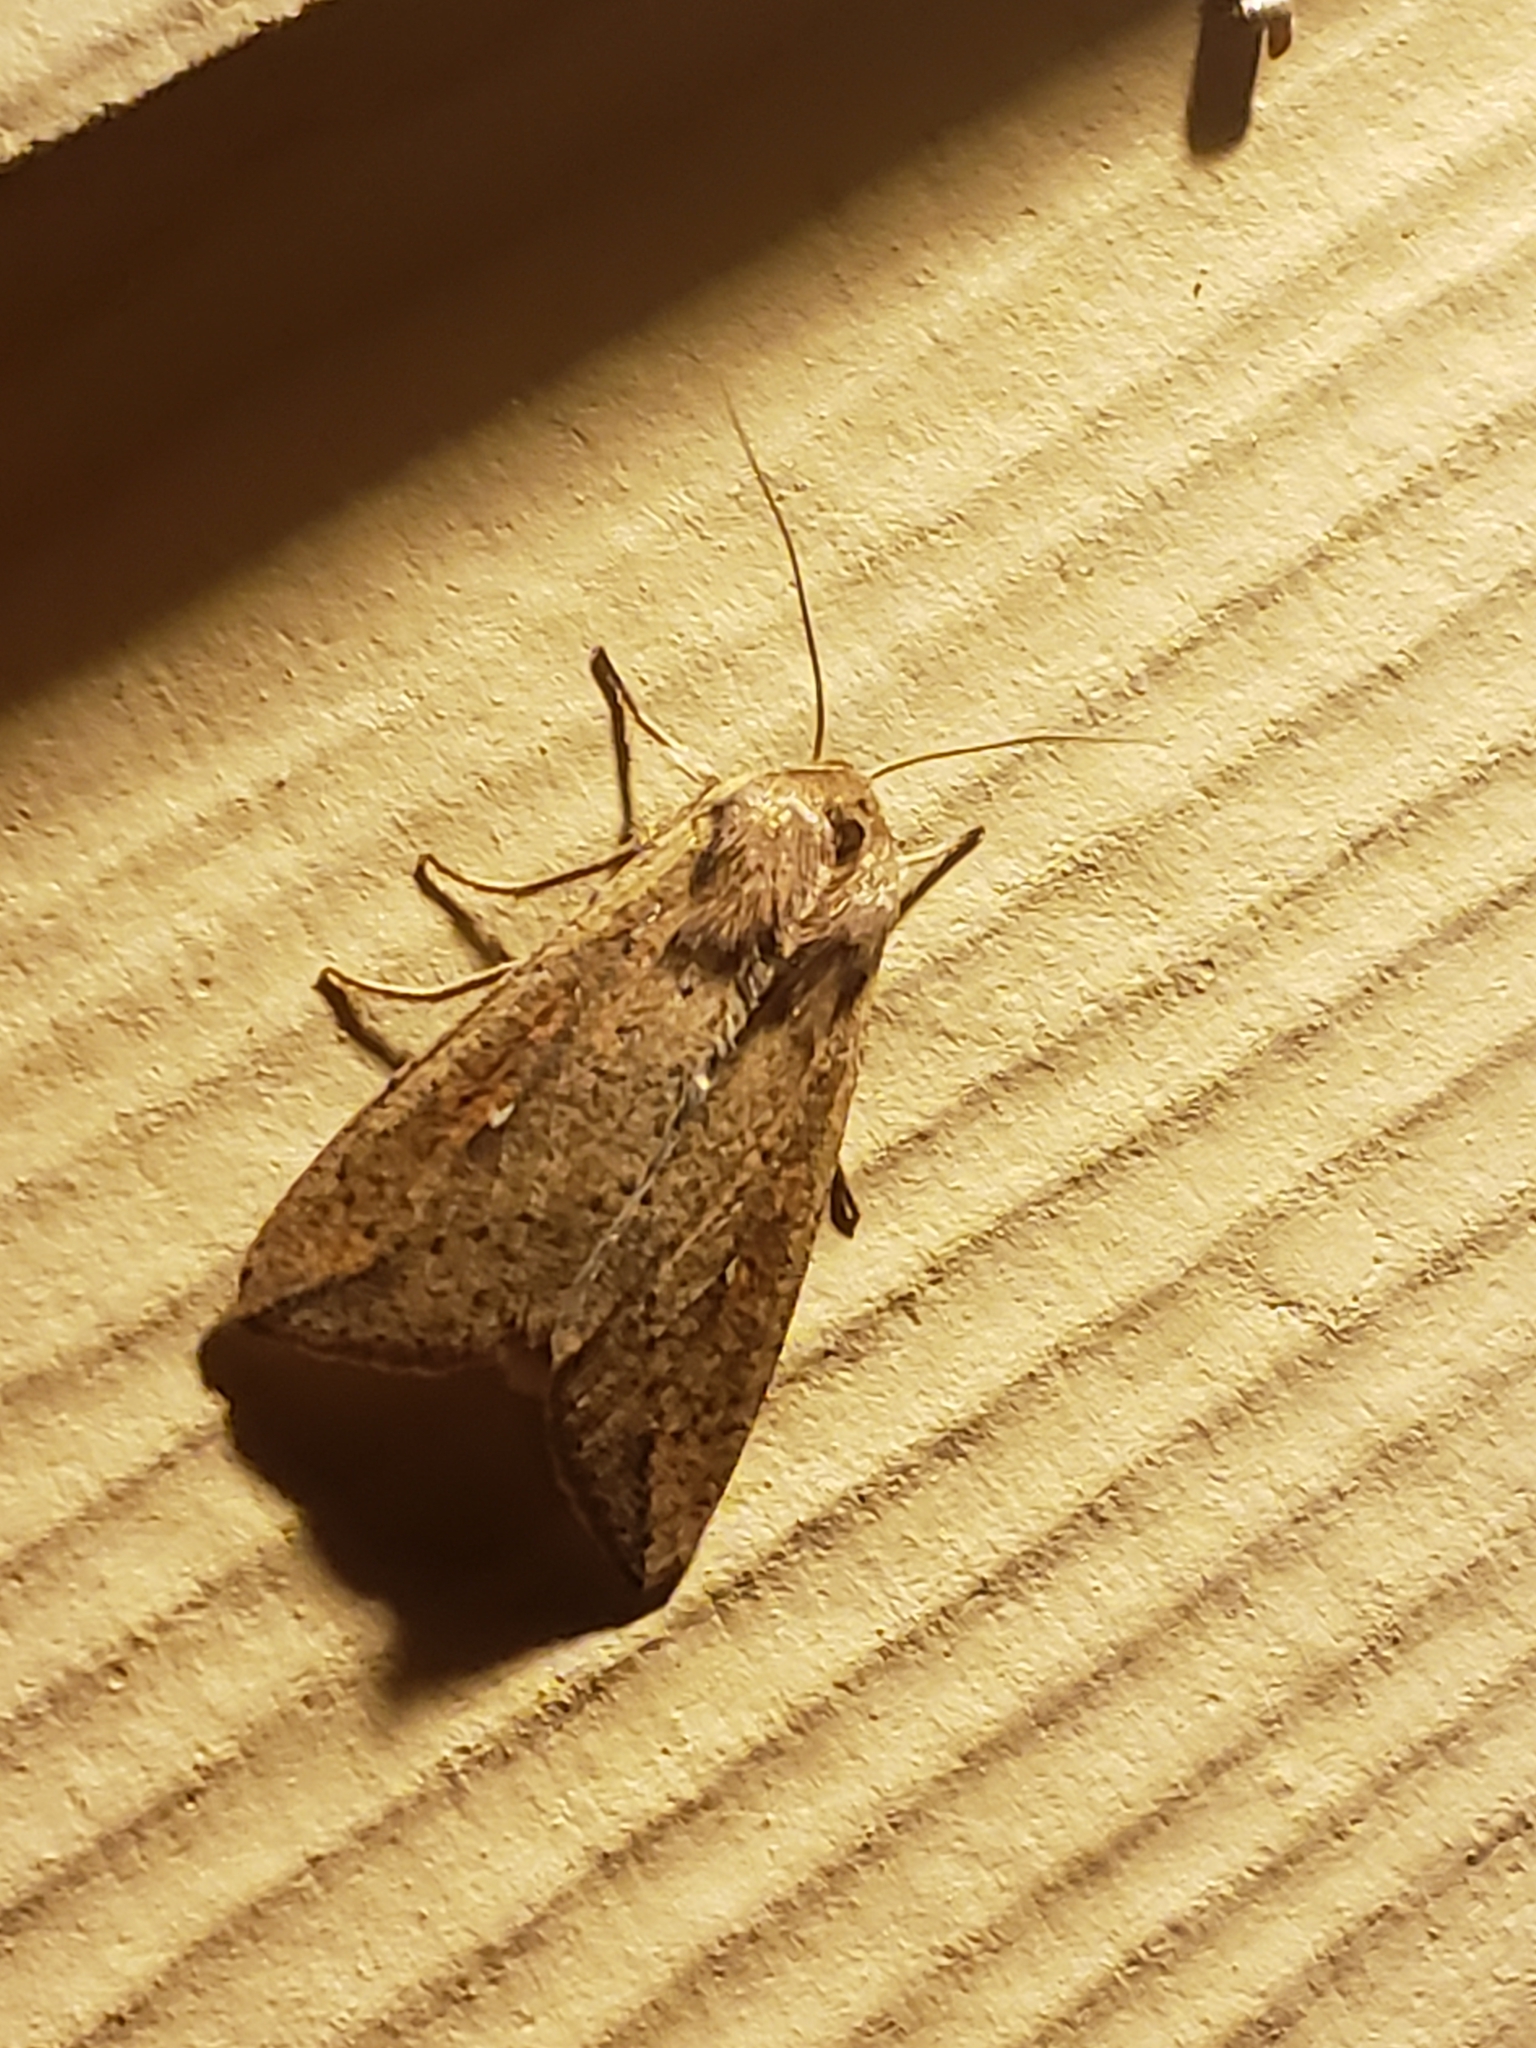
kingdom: Animalia
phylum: Arthropoda
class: Insecta
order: Lepidoptera
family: Noctuidae
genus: Mythimna
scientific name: Mythimna unipuncta
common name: White-speck
